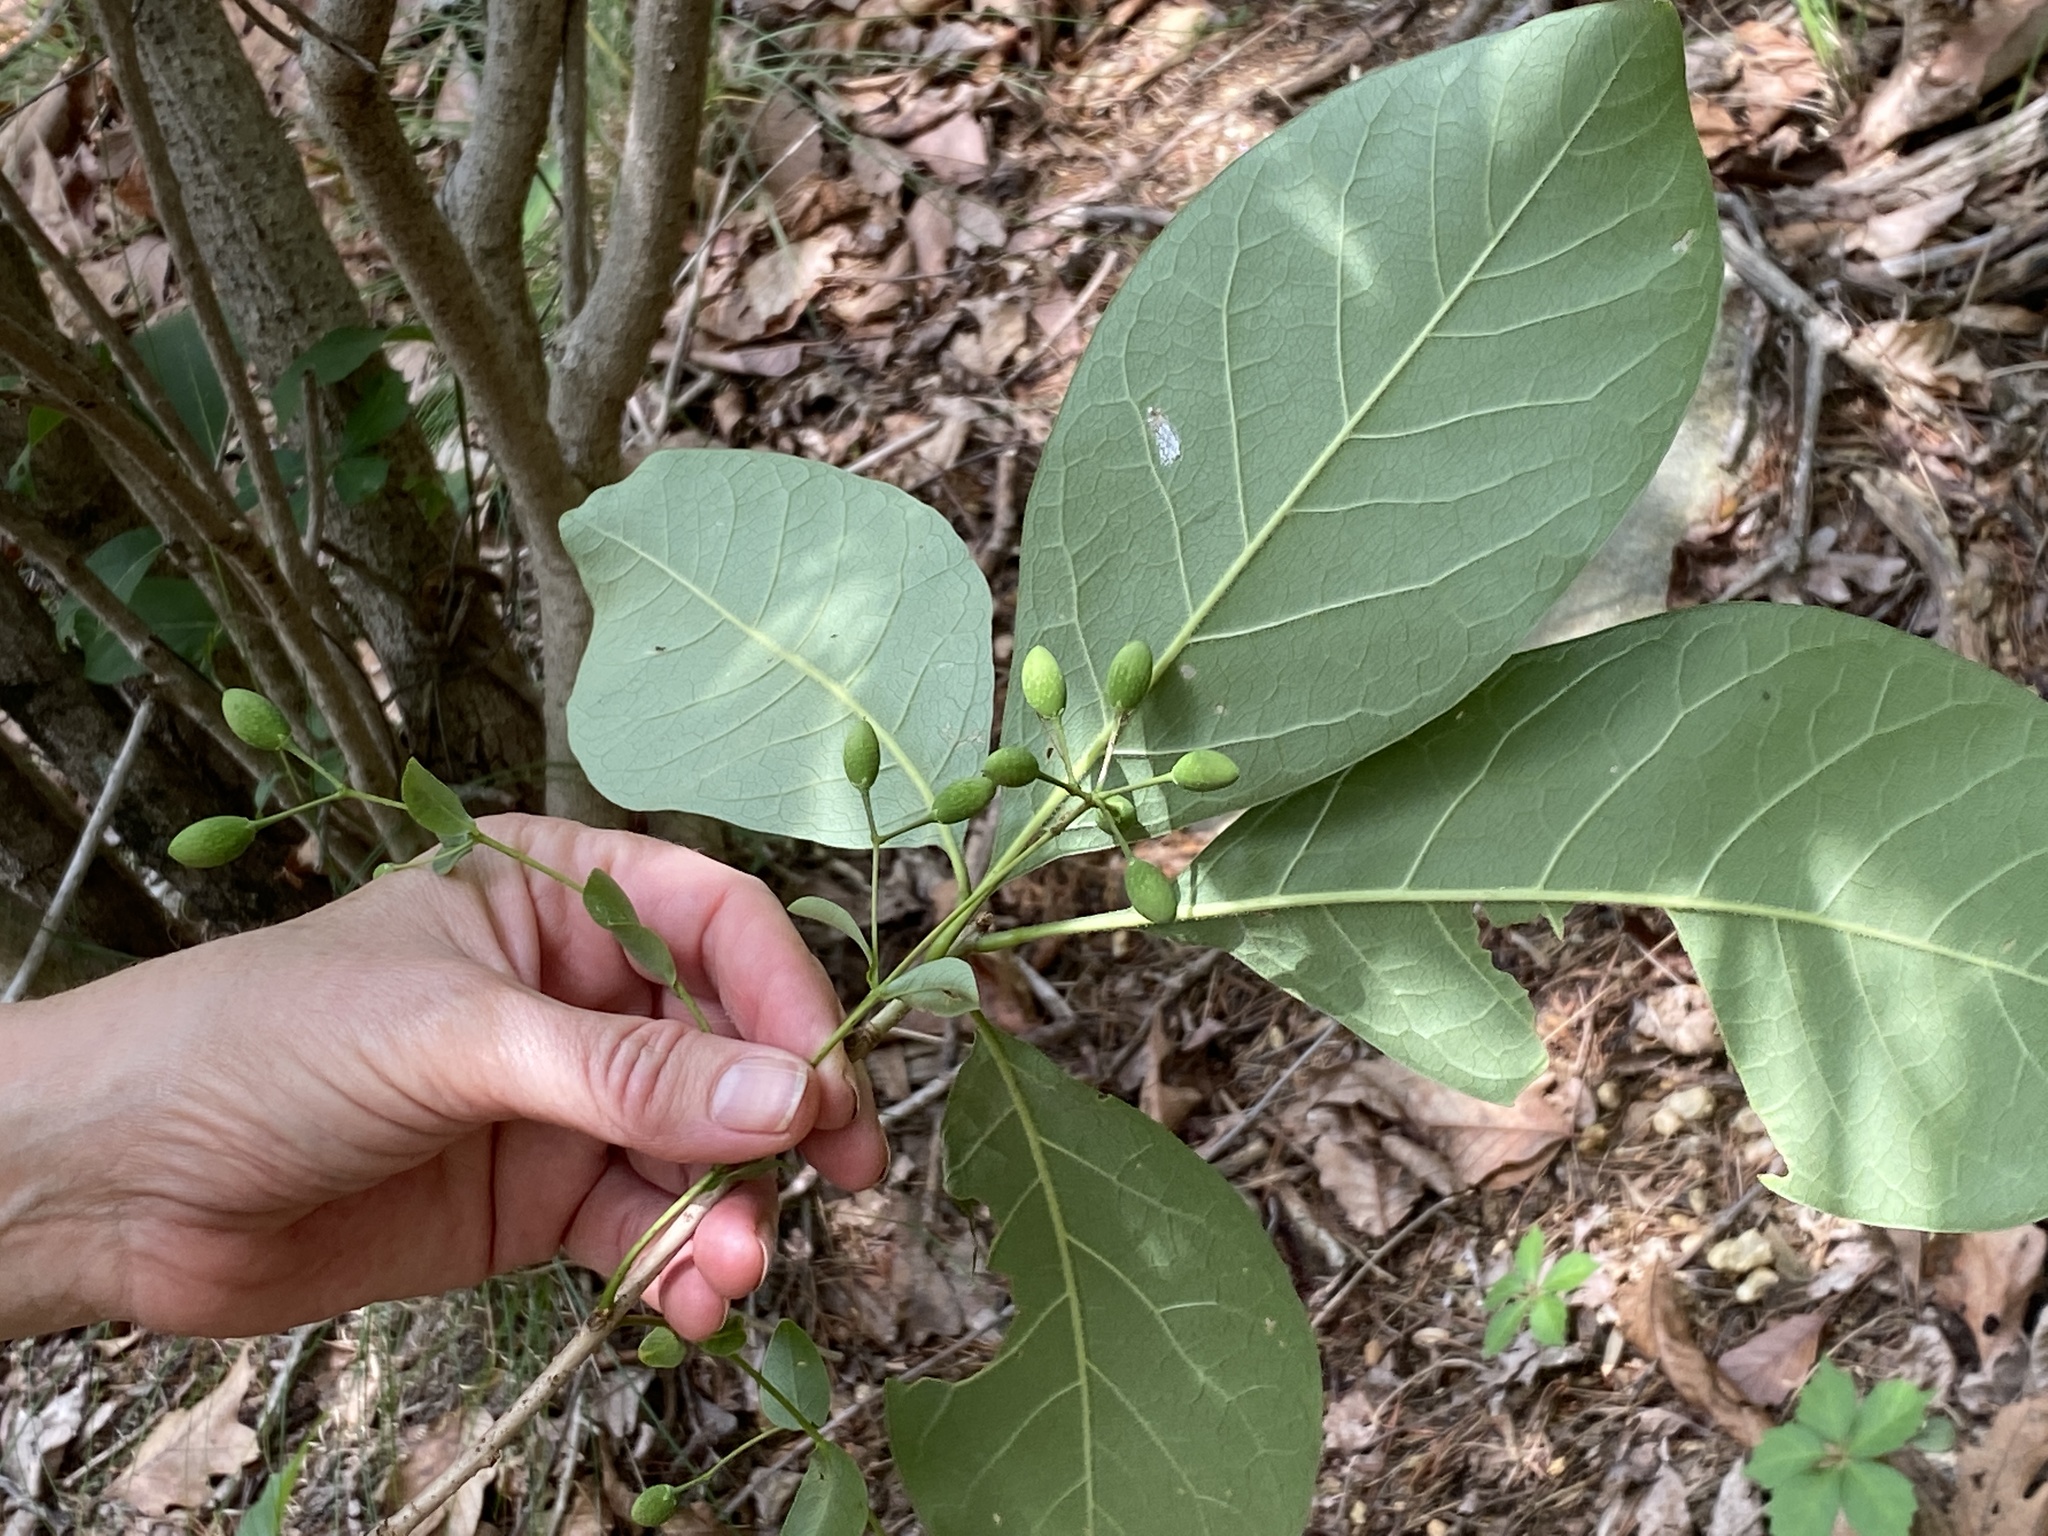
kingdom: Plantae
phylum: Tracheophyta
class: Magnoliopsida
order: Lamiales
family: Oleaceae
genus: Chionanthus
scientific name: Chionanthus virginicus
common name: American fringetree
